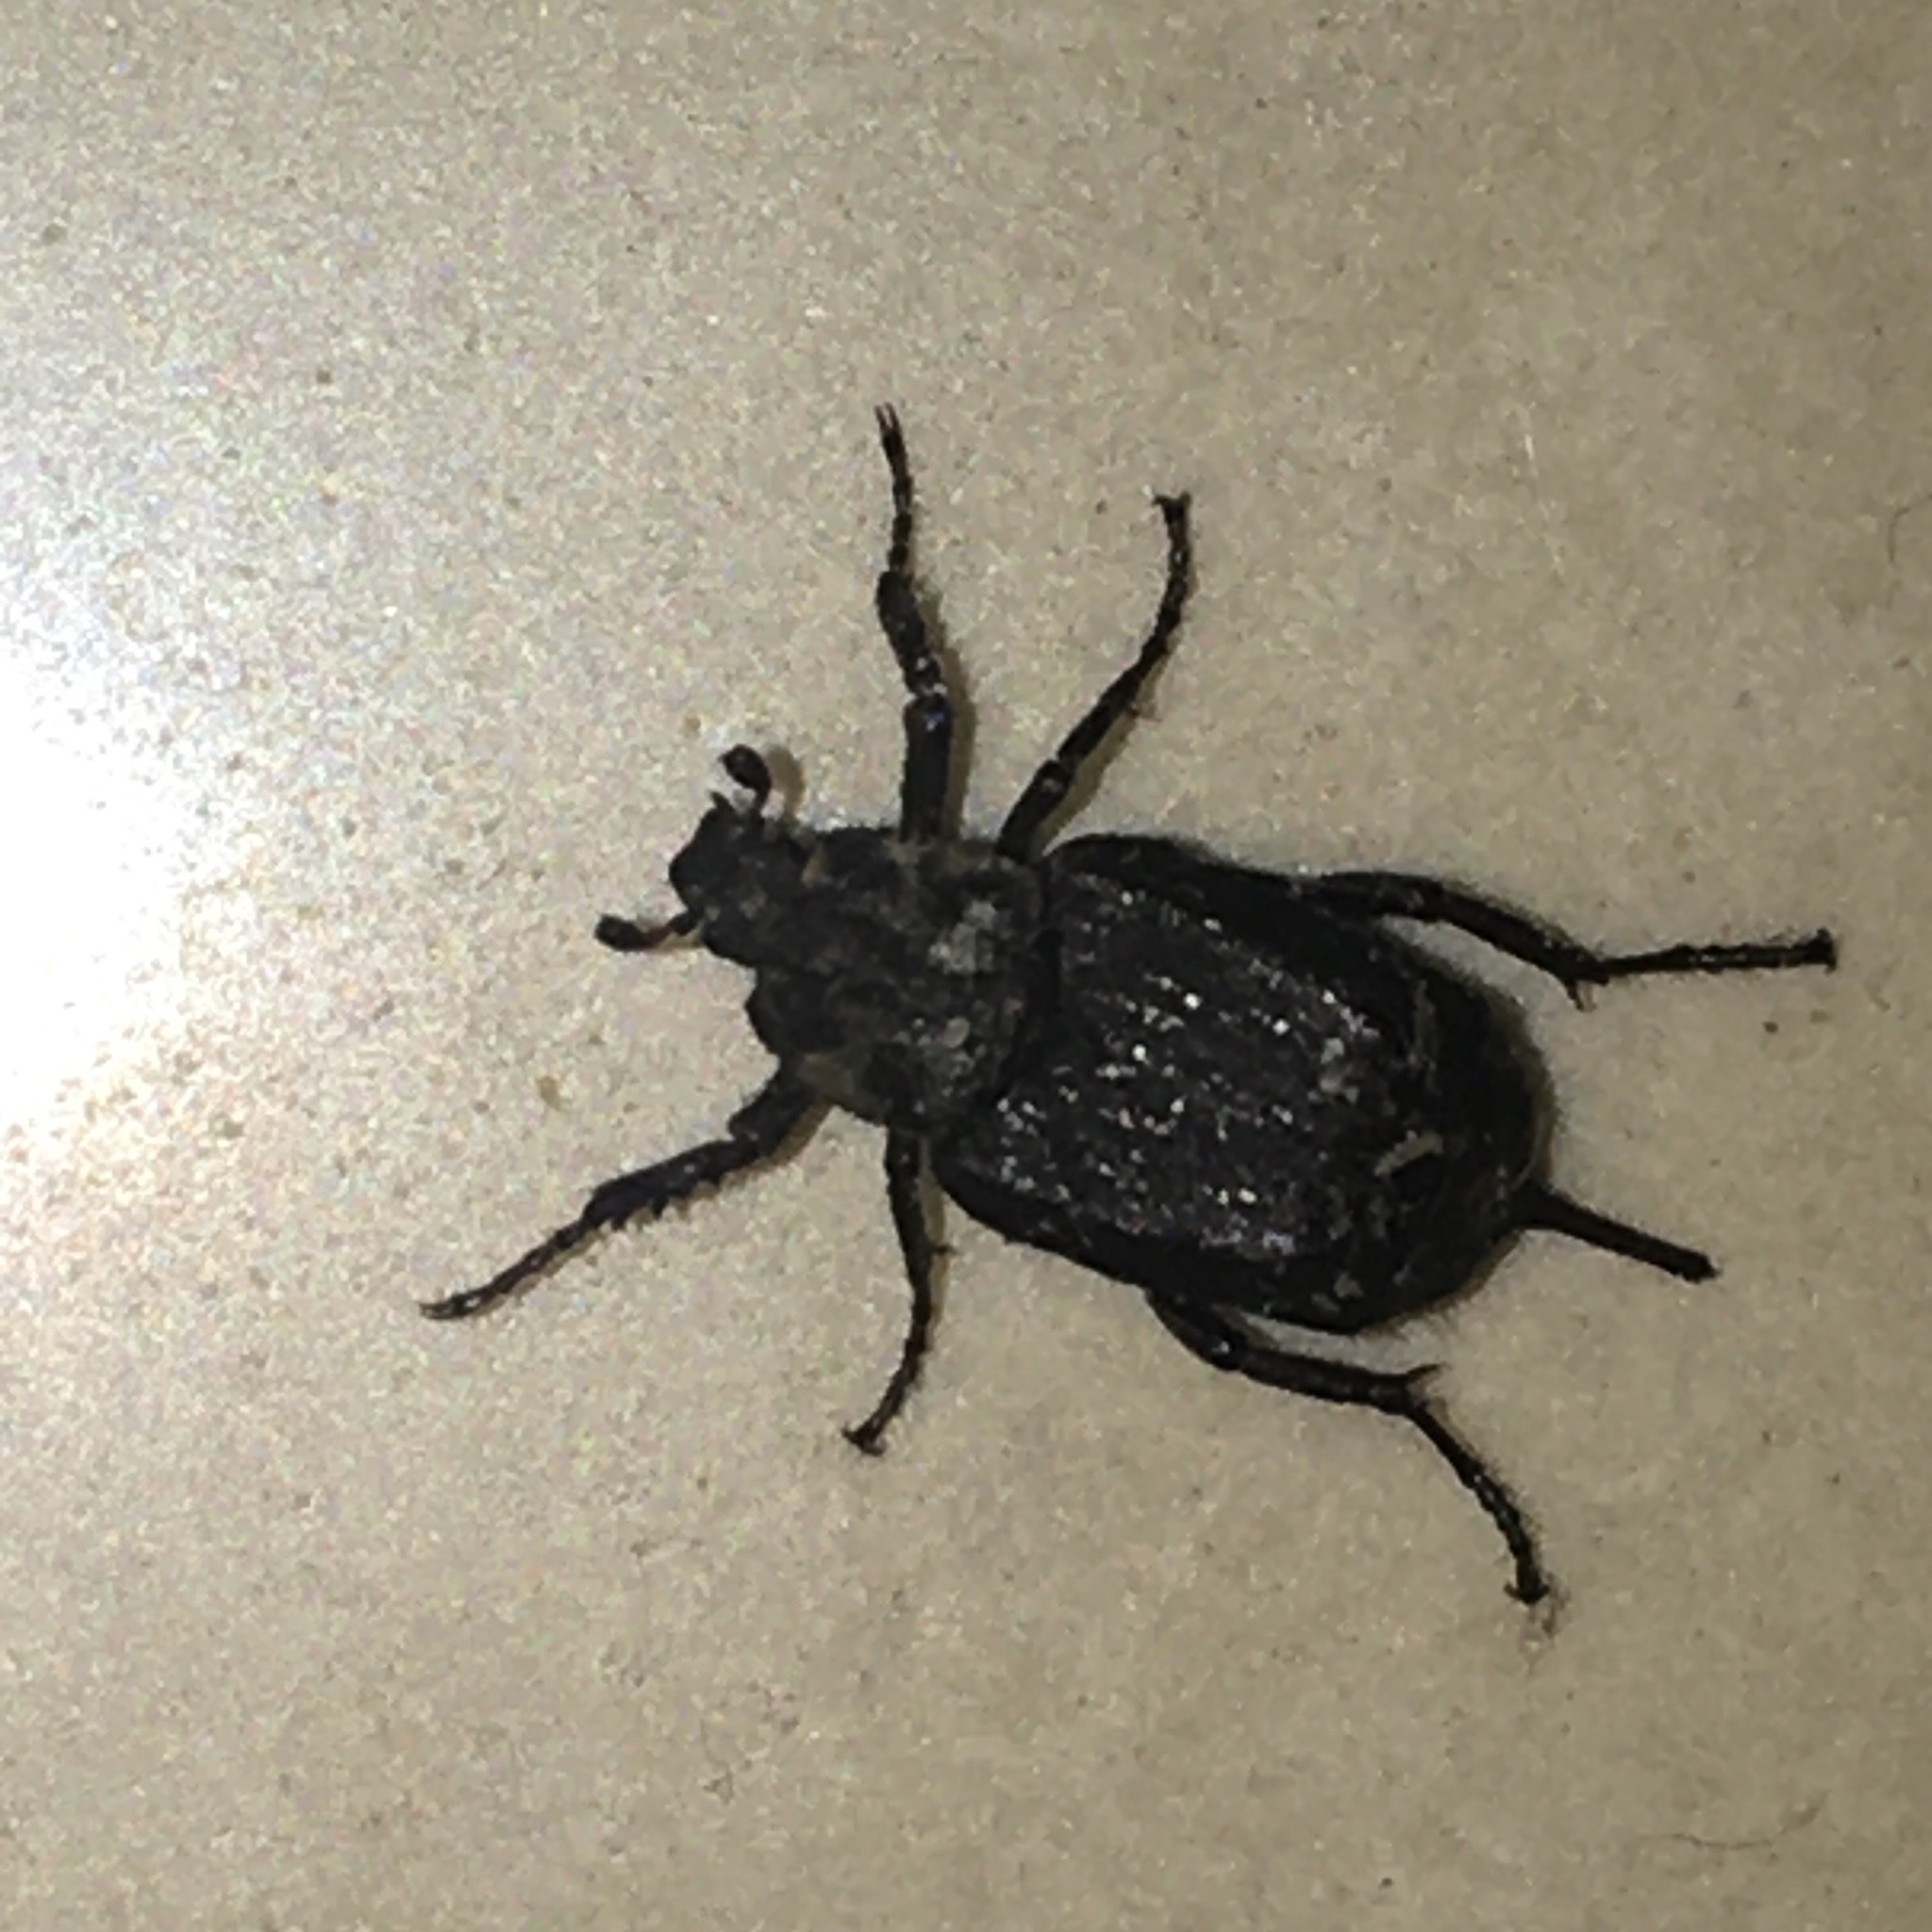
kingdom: Animalia
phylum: Arthropoda
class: Insecta
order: Coleoptera
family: Scarabaeidae
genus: Valgus
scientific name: Valgus hemipterus
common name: Bug flower chafer
